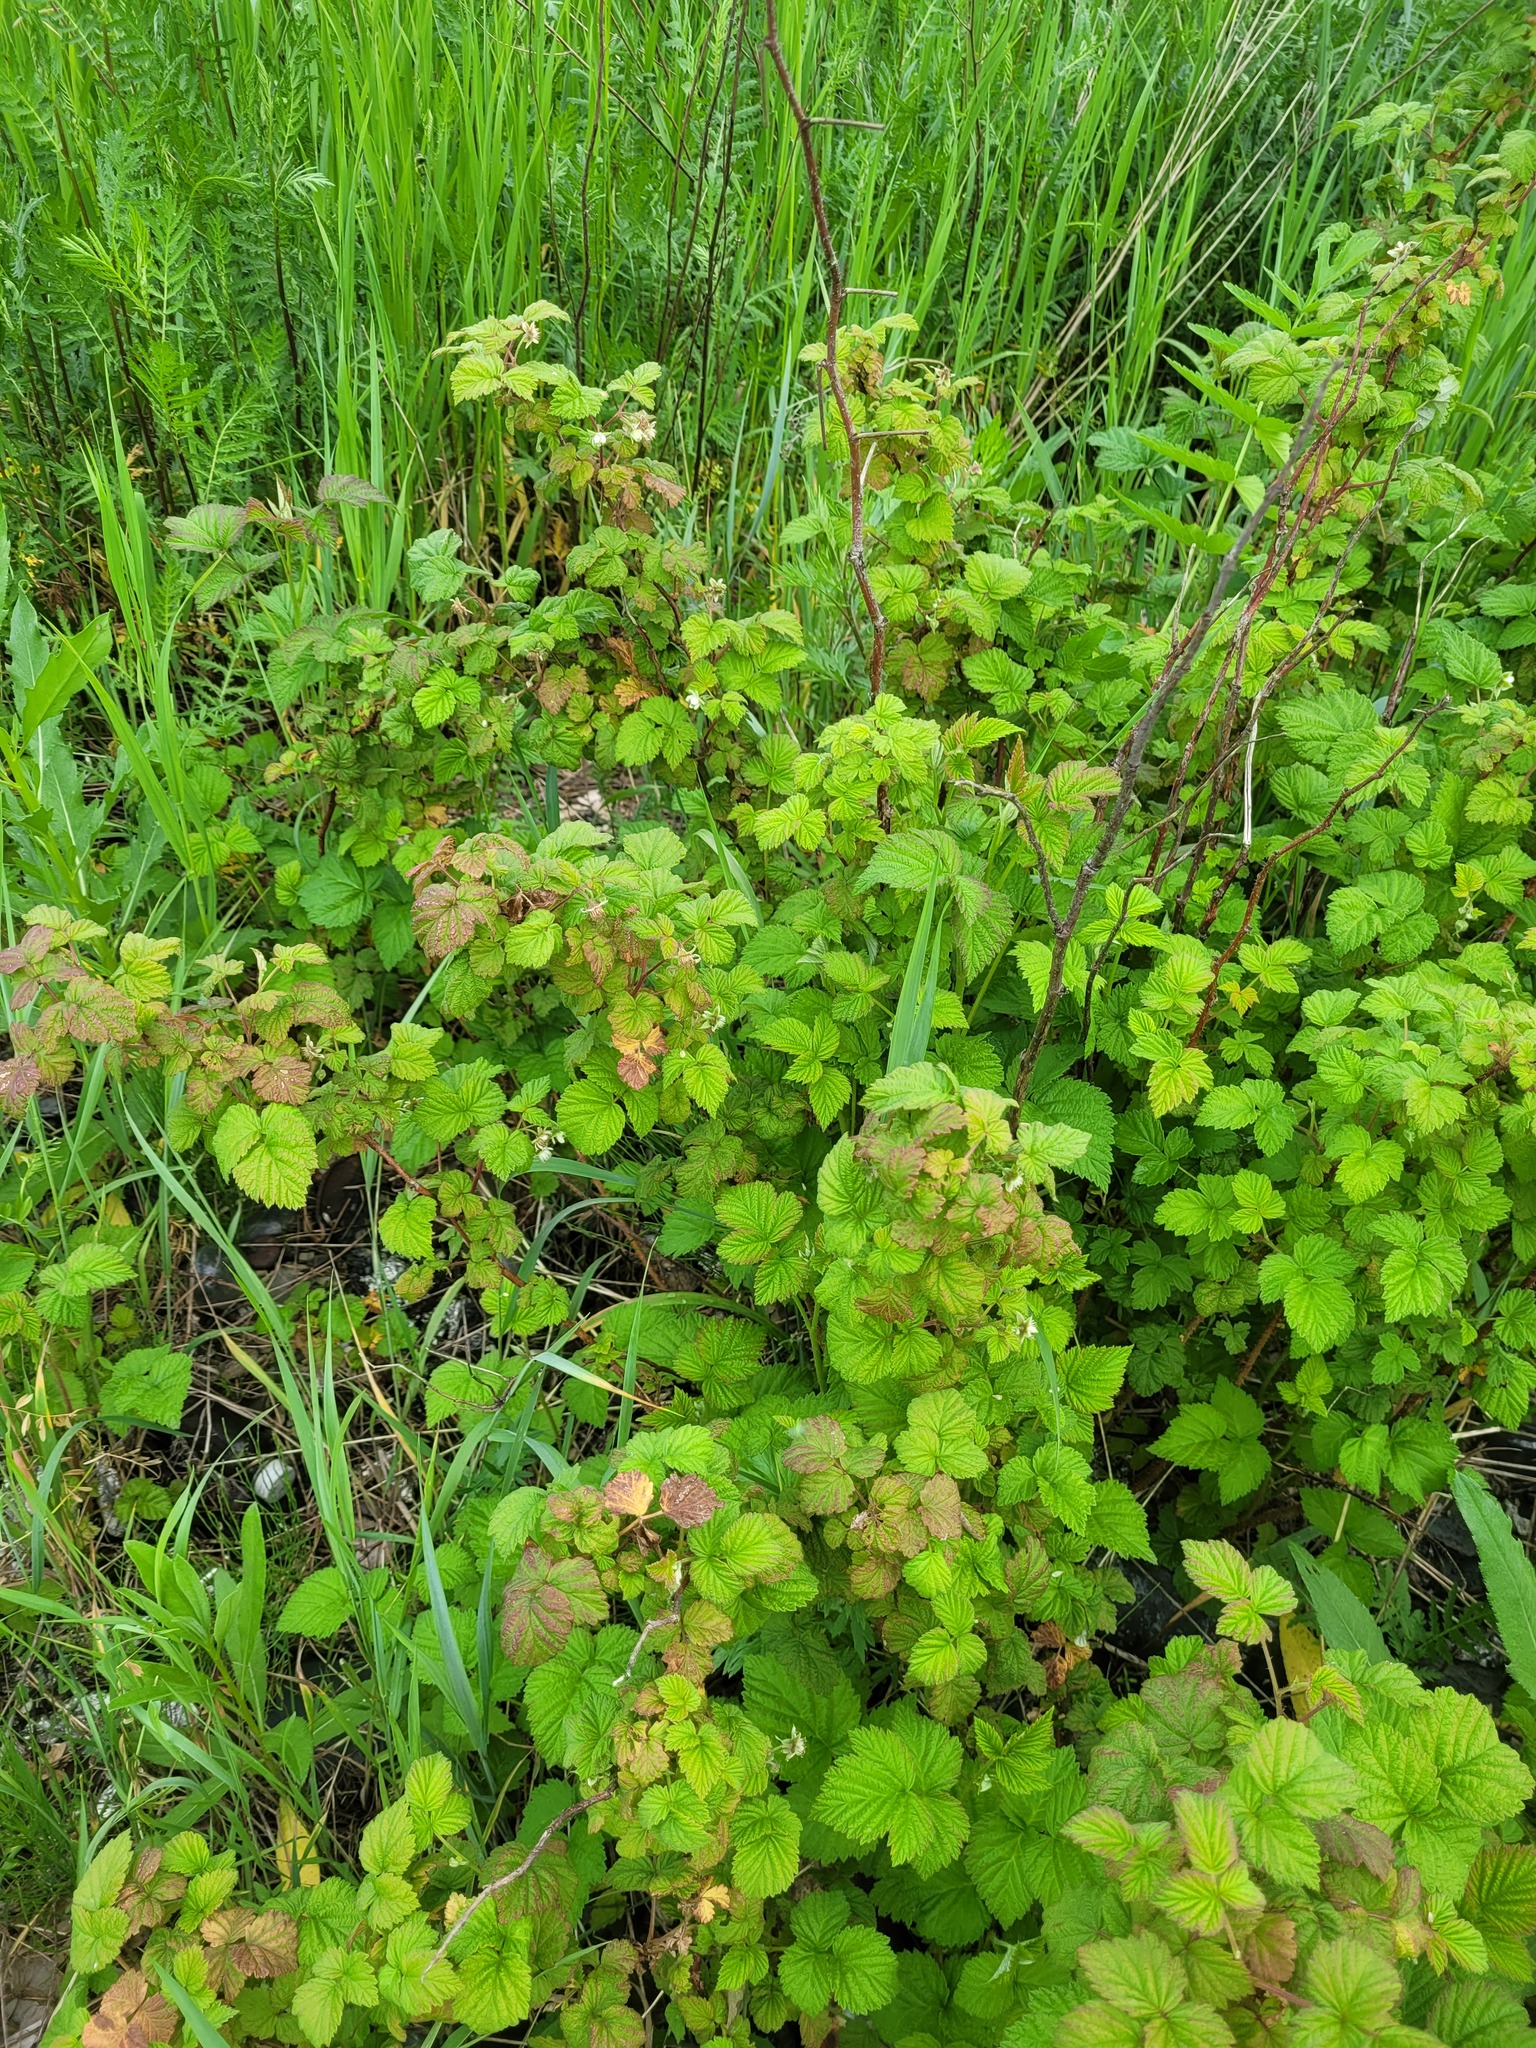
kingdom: Plantae
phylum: Tracheophyta
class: Magnoliopsida
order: Rosales
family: Rosaceae
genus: Rubus
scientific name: Rubus idaeus
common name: Raspberry
